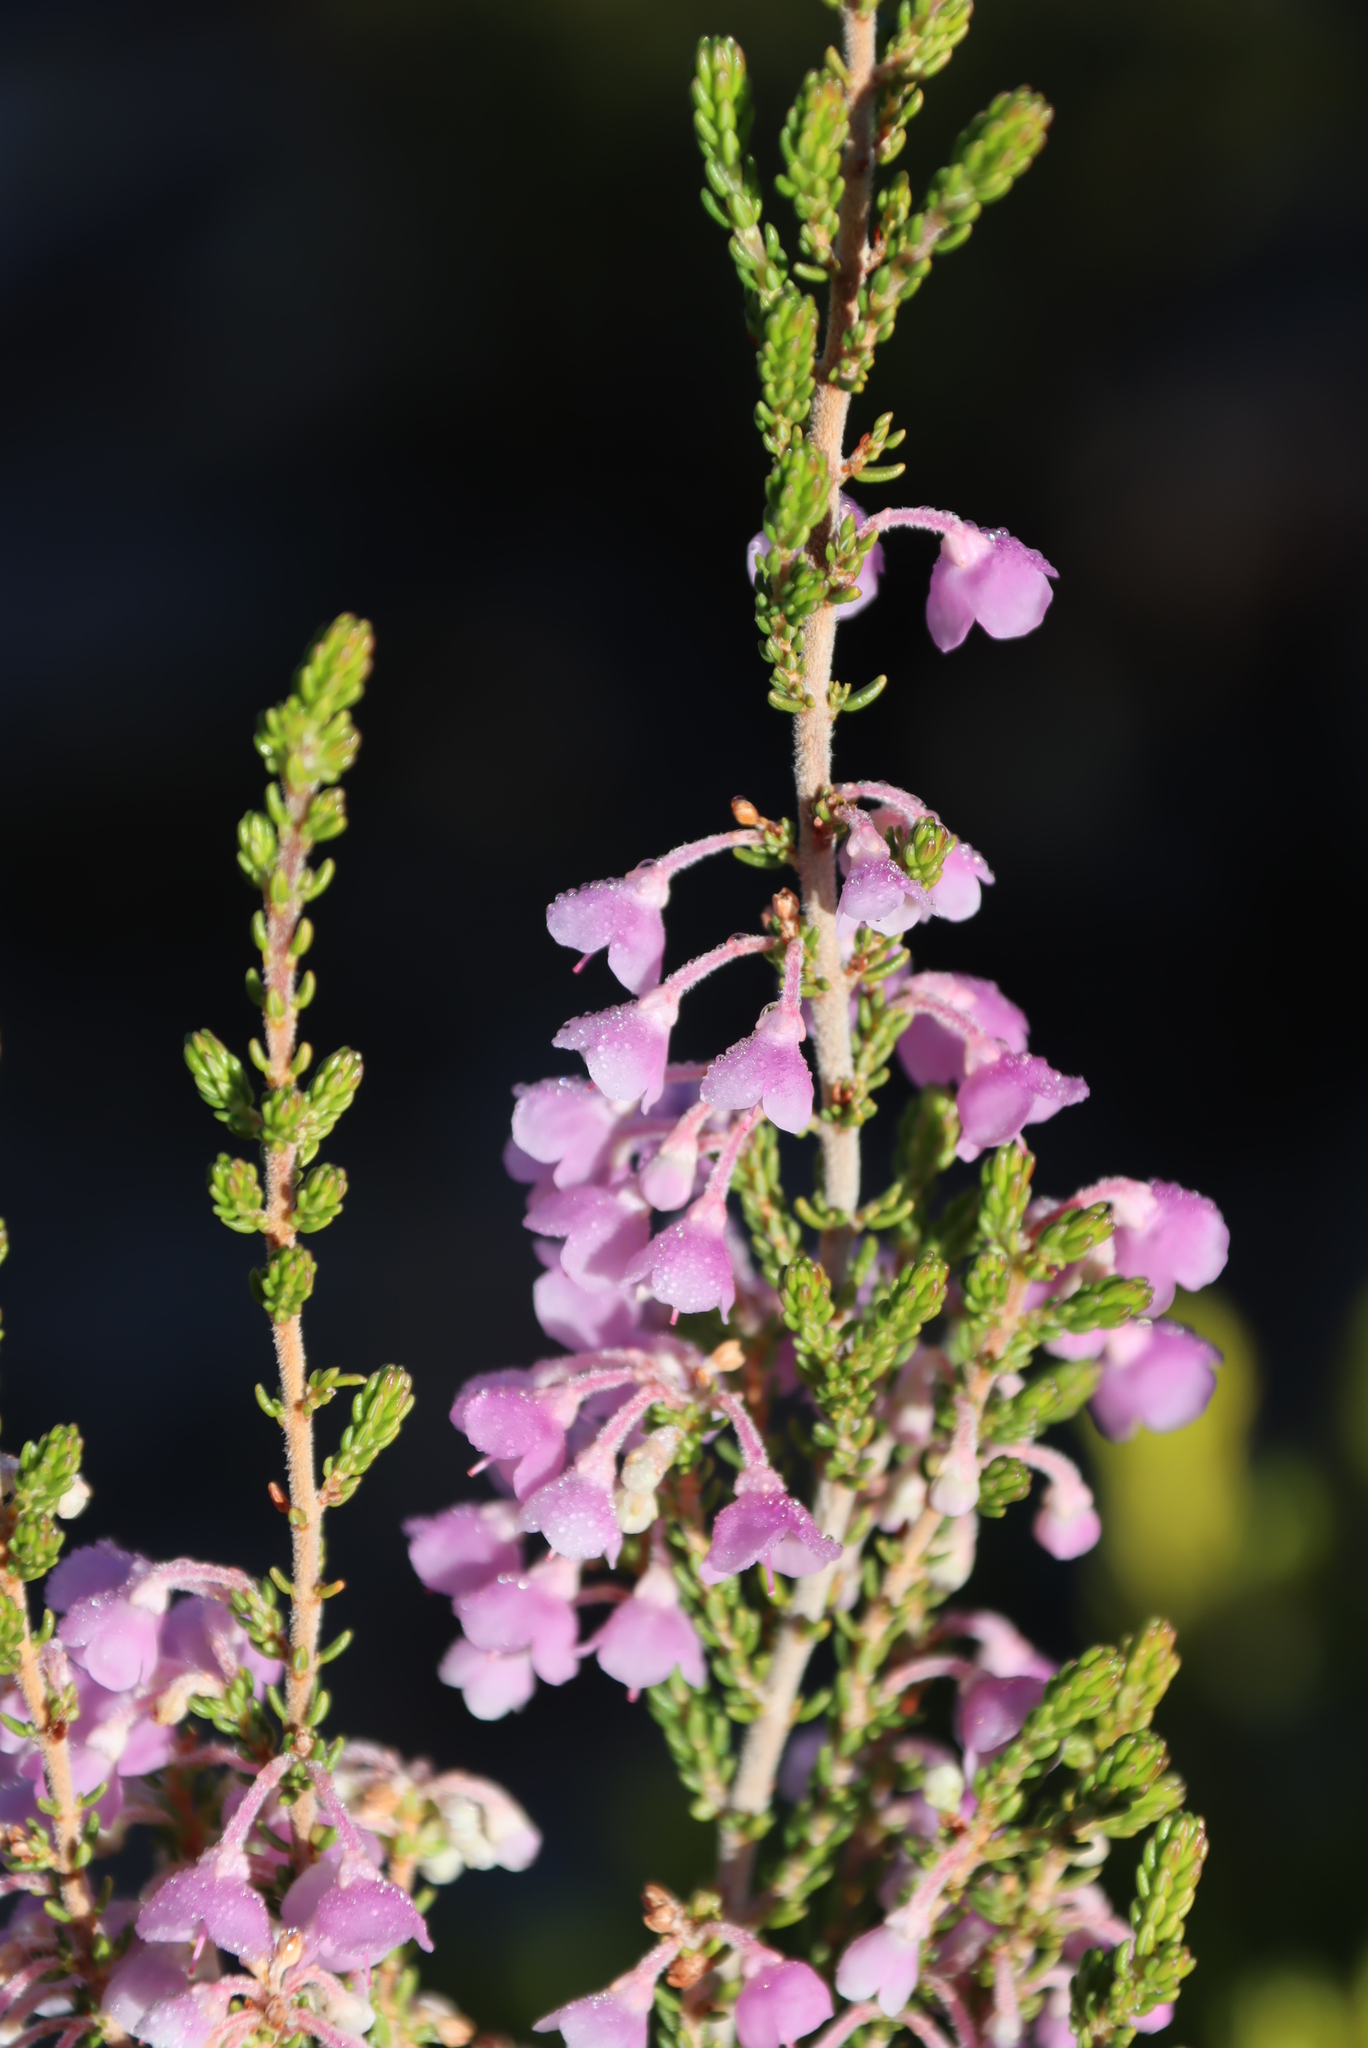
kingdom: Plantae
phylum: Tracheophyta
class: Magnoliopsida
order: Ericales
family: Ericaceae
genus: Erica
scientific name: Erica newdigatei
